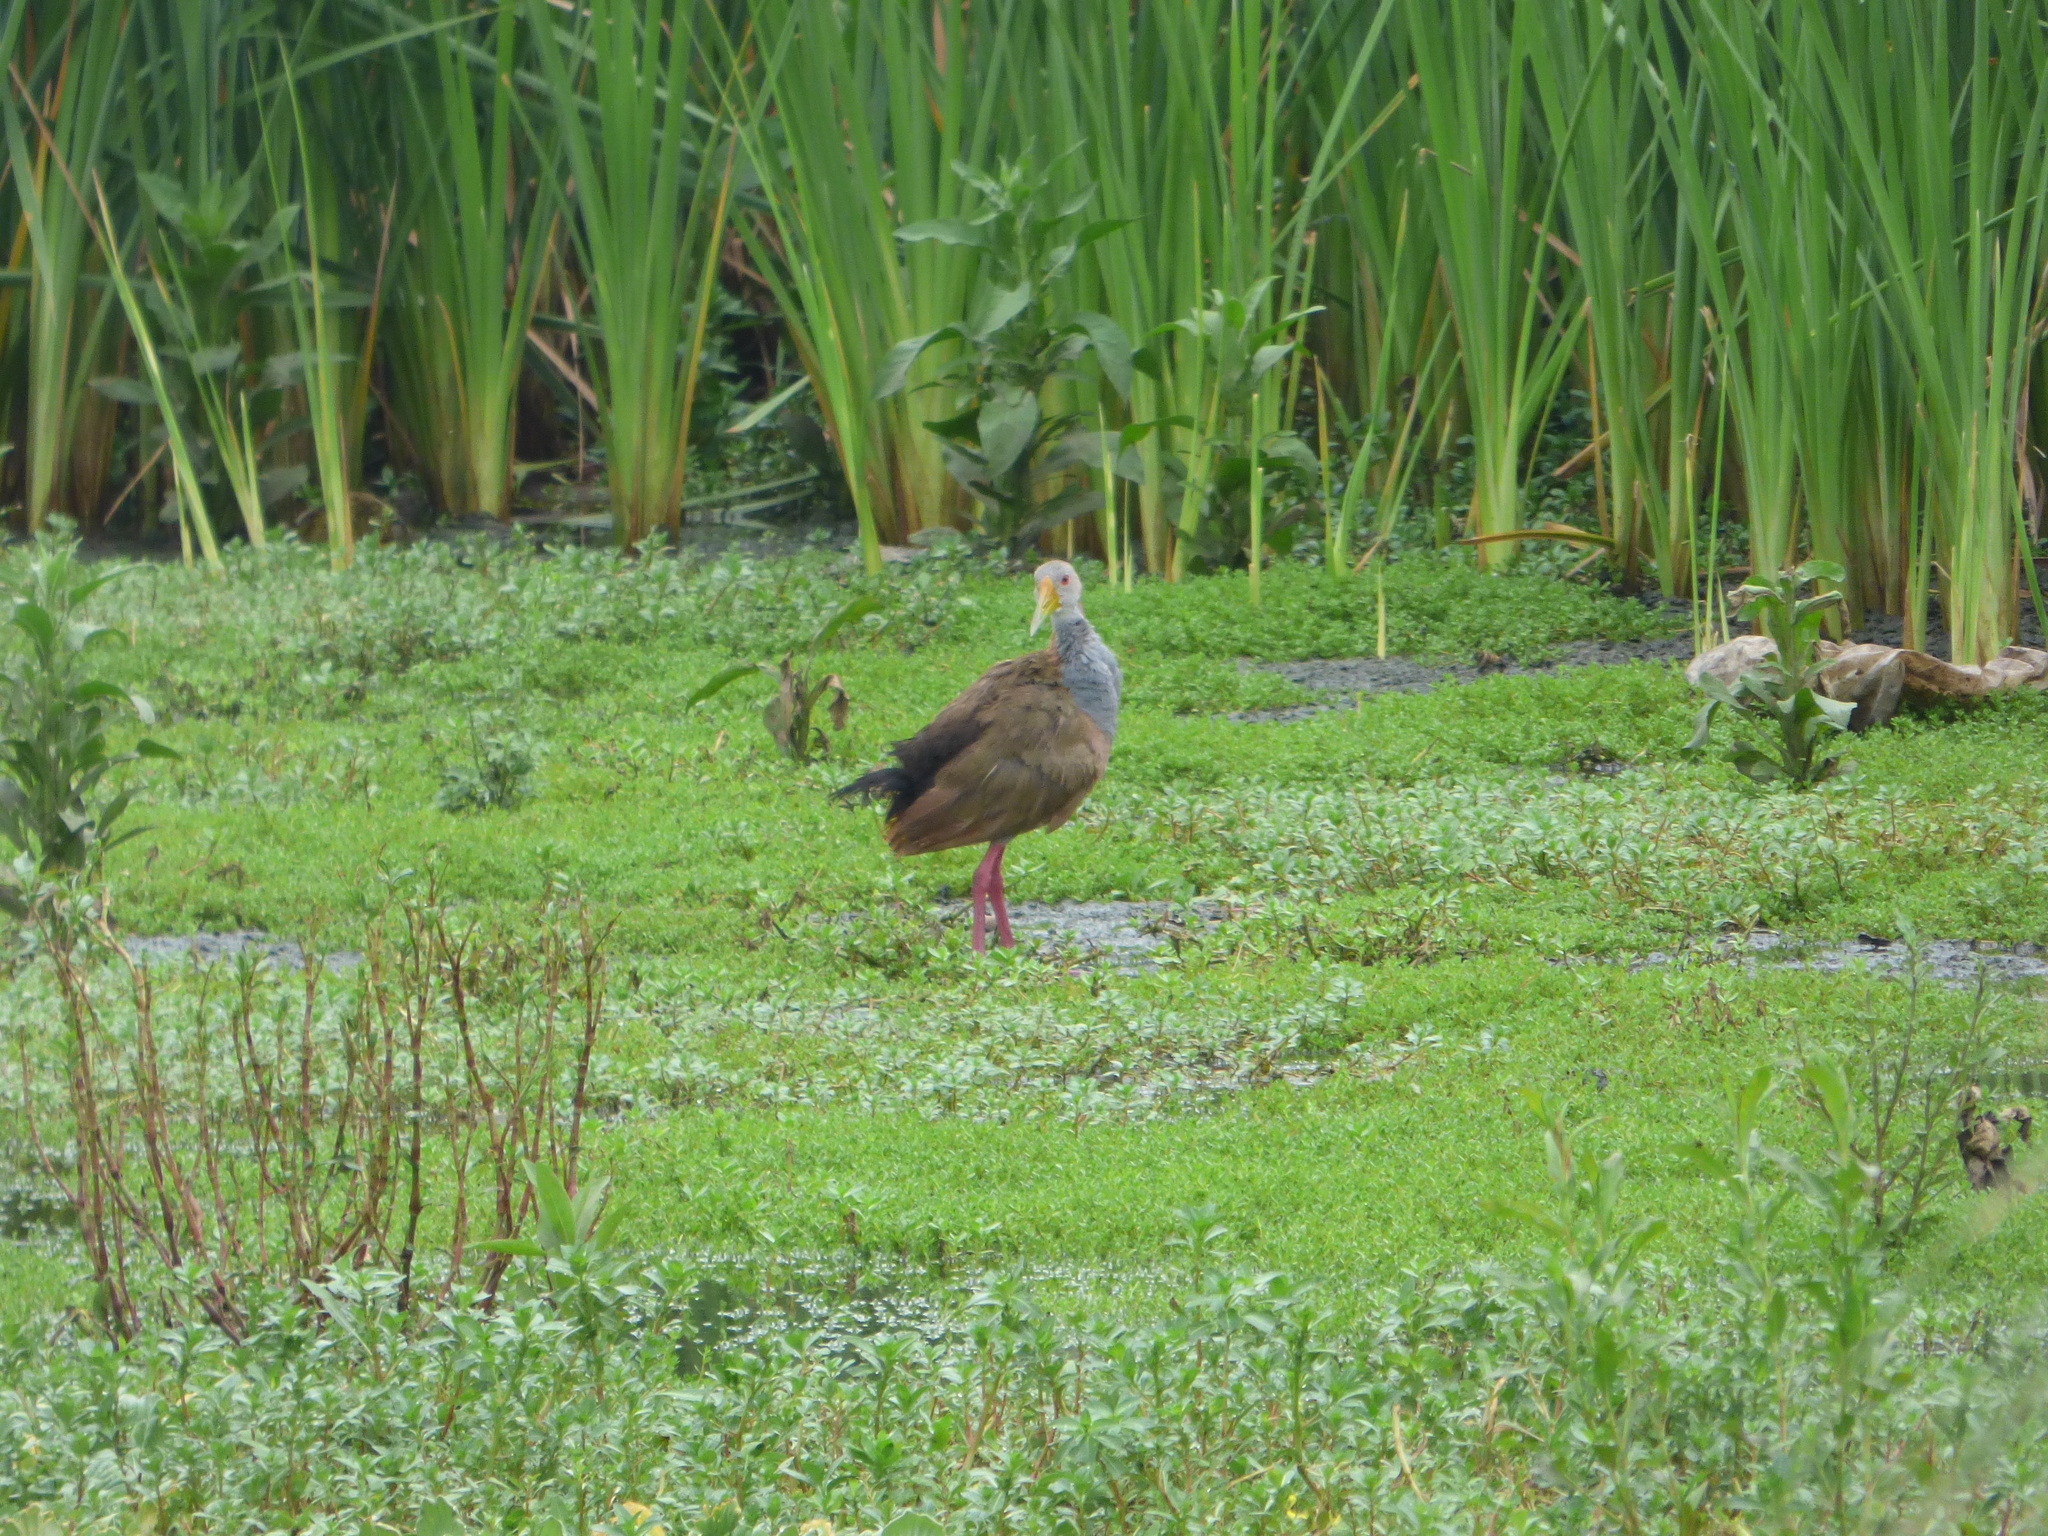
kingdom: Animalia
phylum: Chordata
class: Aves
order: Gruiformes
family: Rallidae
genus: Aramides
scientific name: Aramides ypecaha
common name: Giant wood rail
